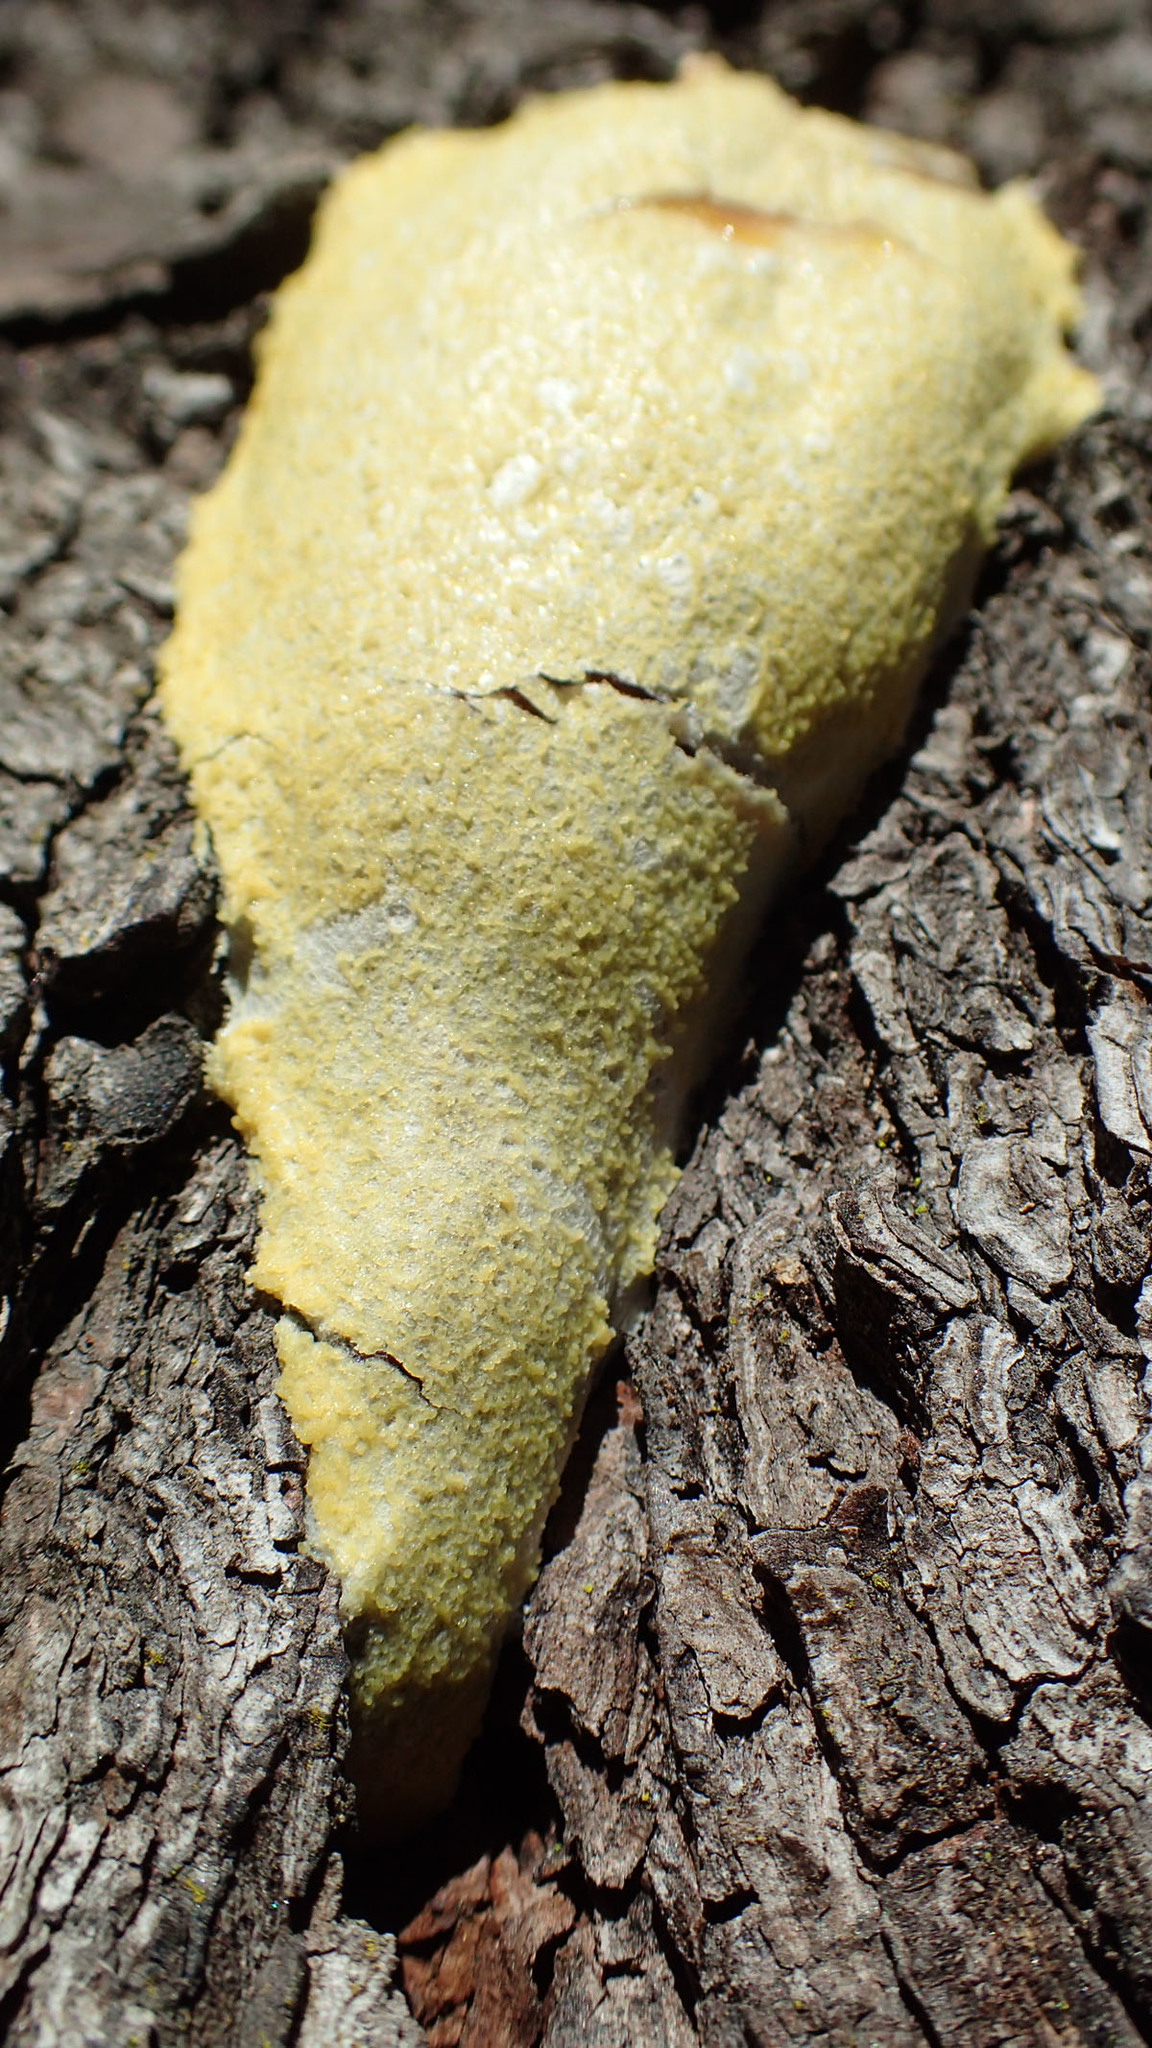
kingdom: Protozoa
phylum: Mycetozoa
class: Myxomycetes
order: Cribrariales
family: Tubiferaceae
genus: Reticularia
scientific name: Reticularia lycoperdon
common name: False puffball
